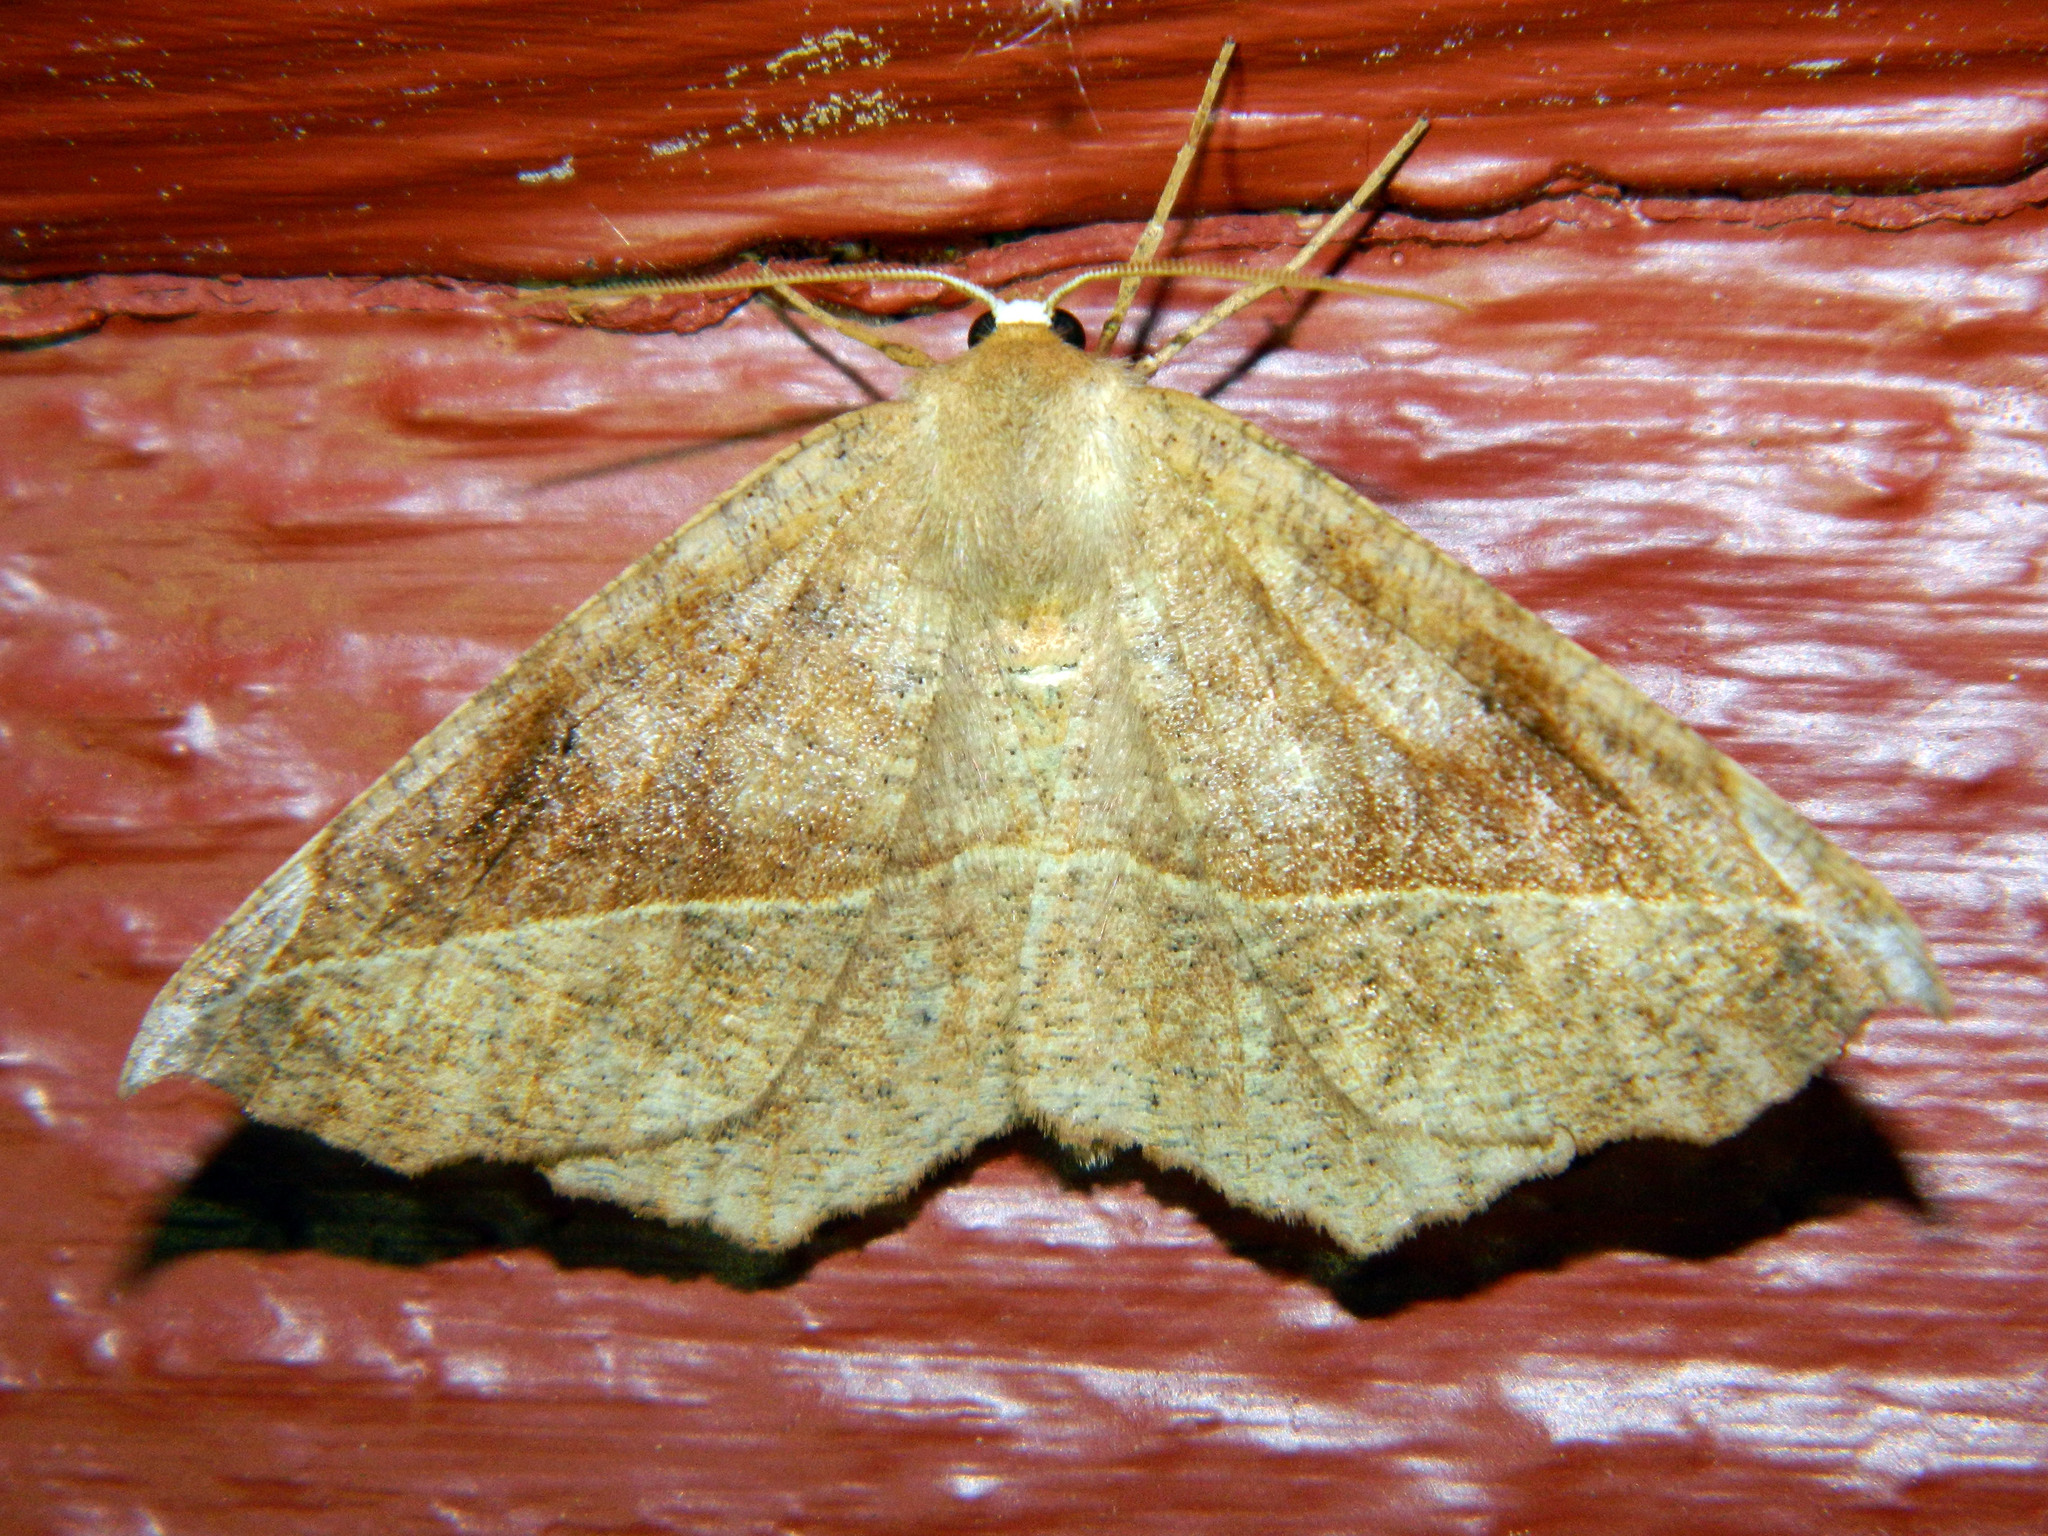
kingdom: Animalia
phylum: Arthropoda
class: Insecta
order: Lepidoptera
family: Geometridae
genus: Eutrapela
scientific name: Eutrapela clemataria
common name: Curved-toothed geometer
